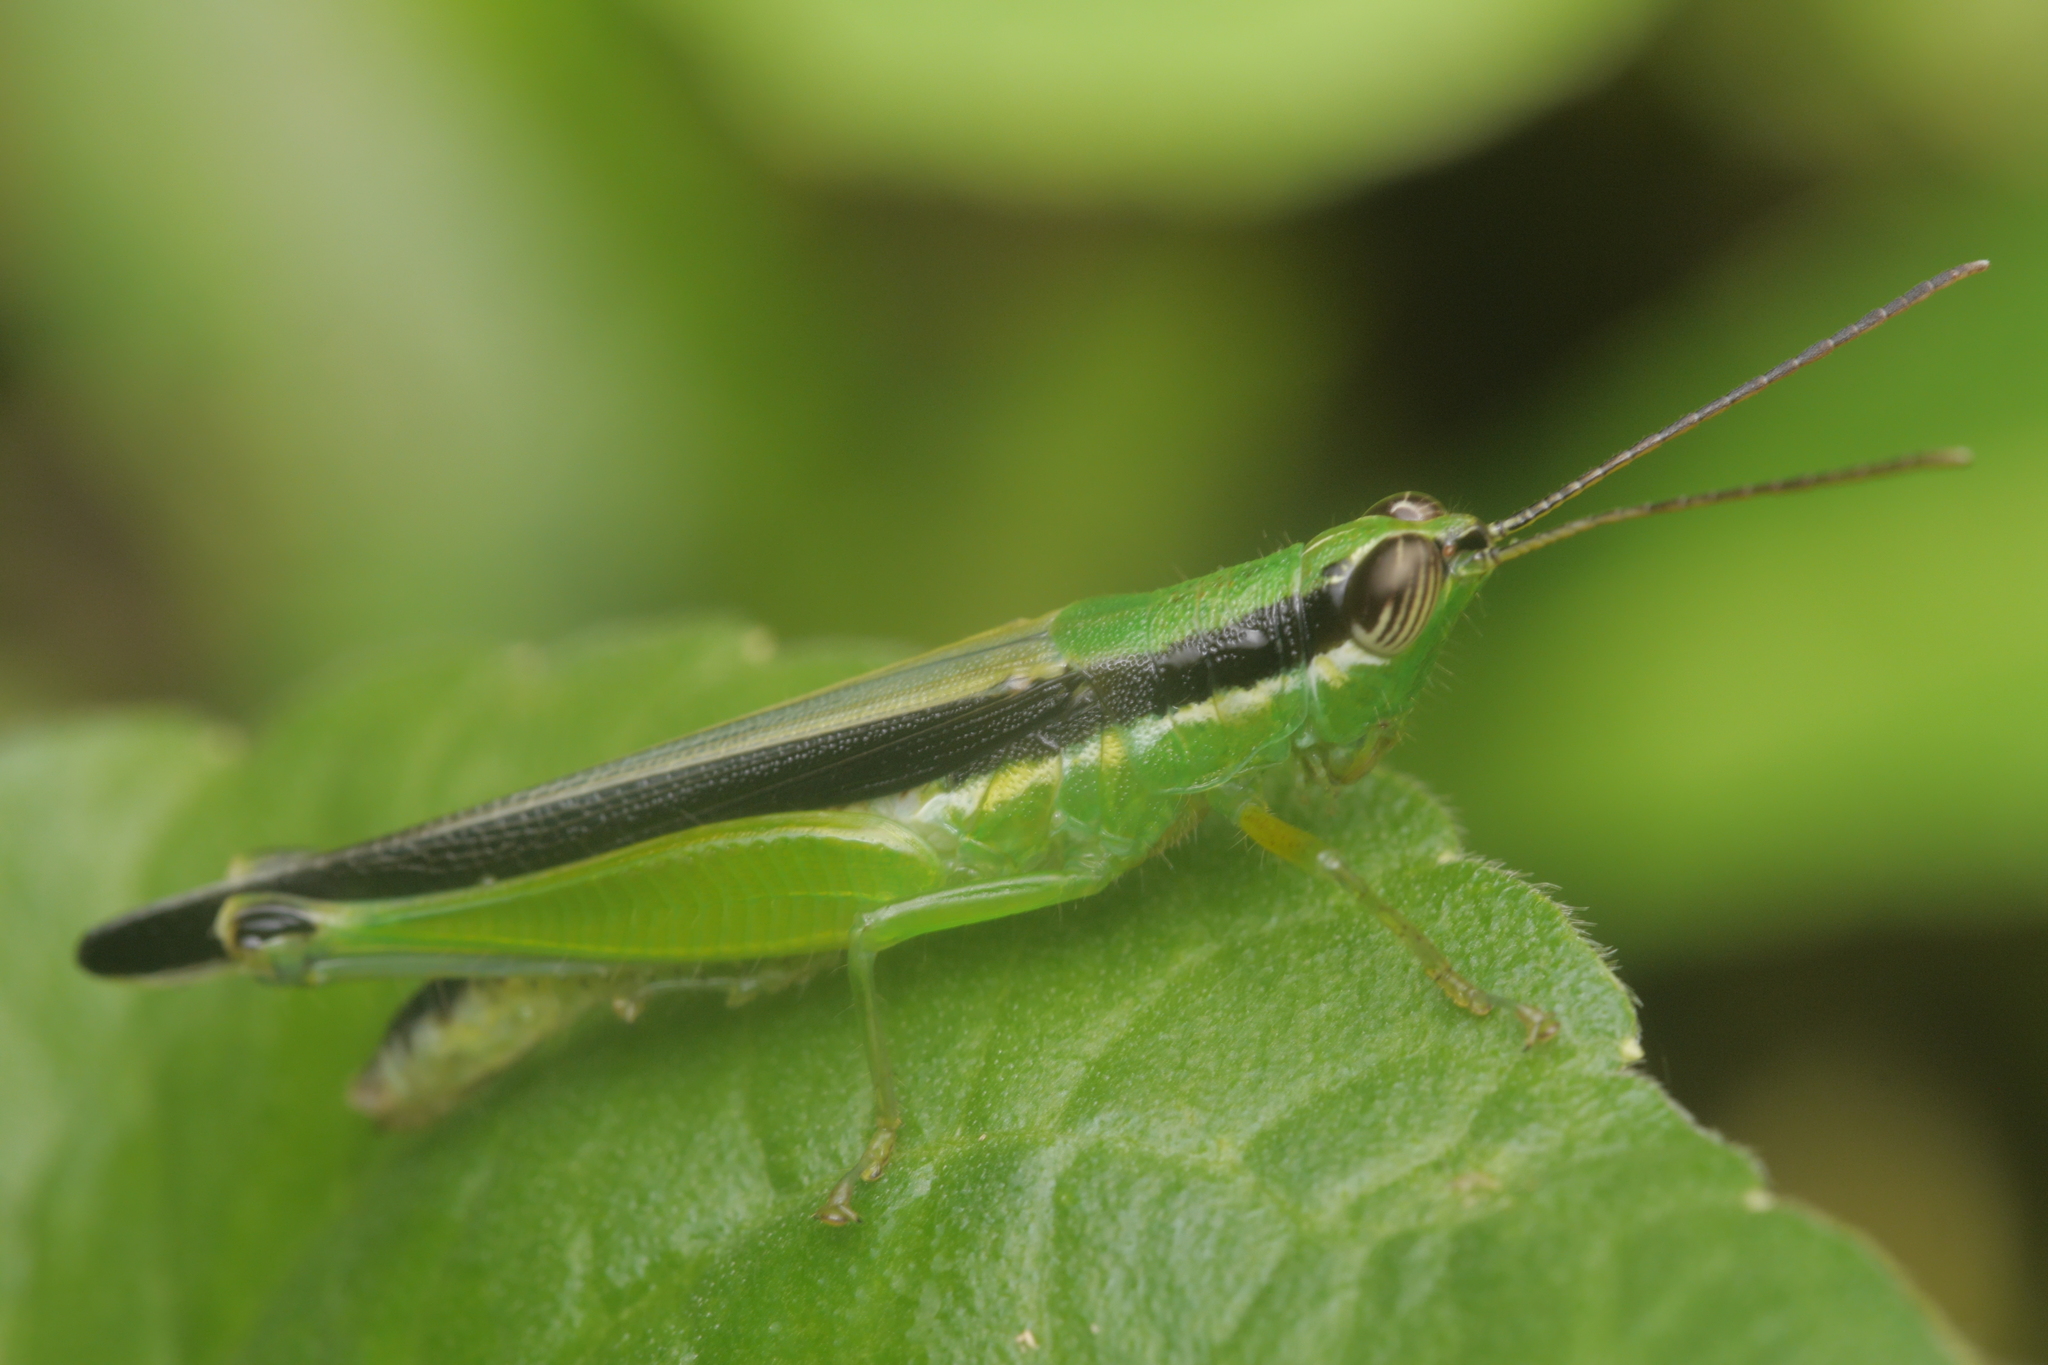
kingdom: Animalia
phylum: Arthropoda
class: Insecta
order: Orthoptera
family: Acrididae
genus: Stenopola
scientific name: Stenopola puncticeps
